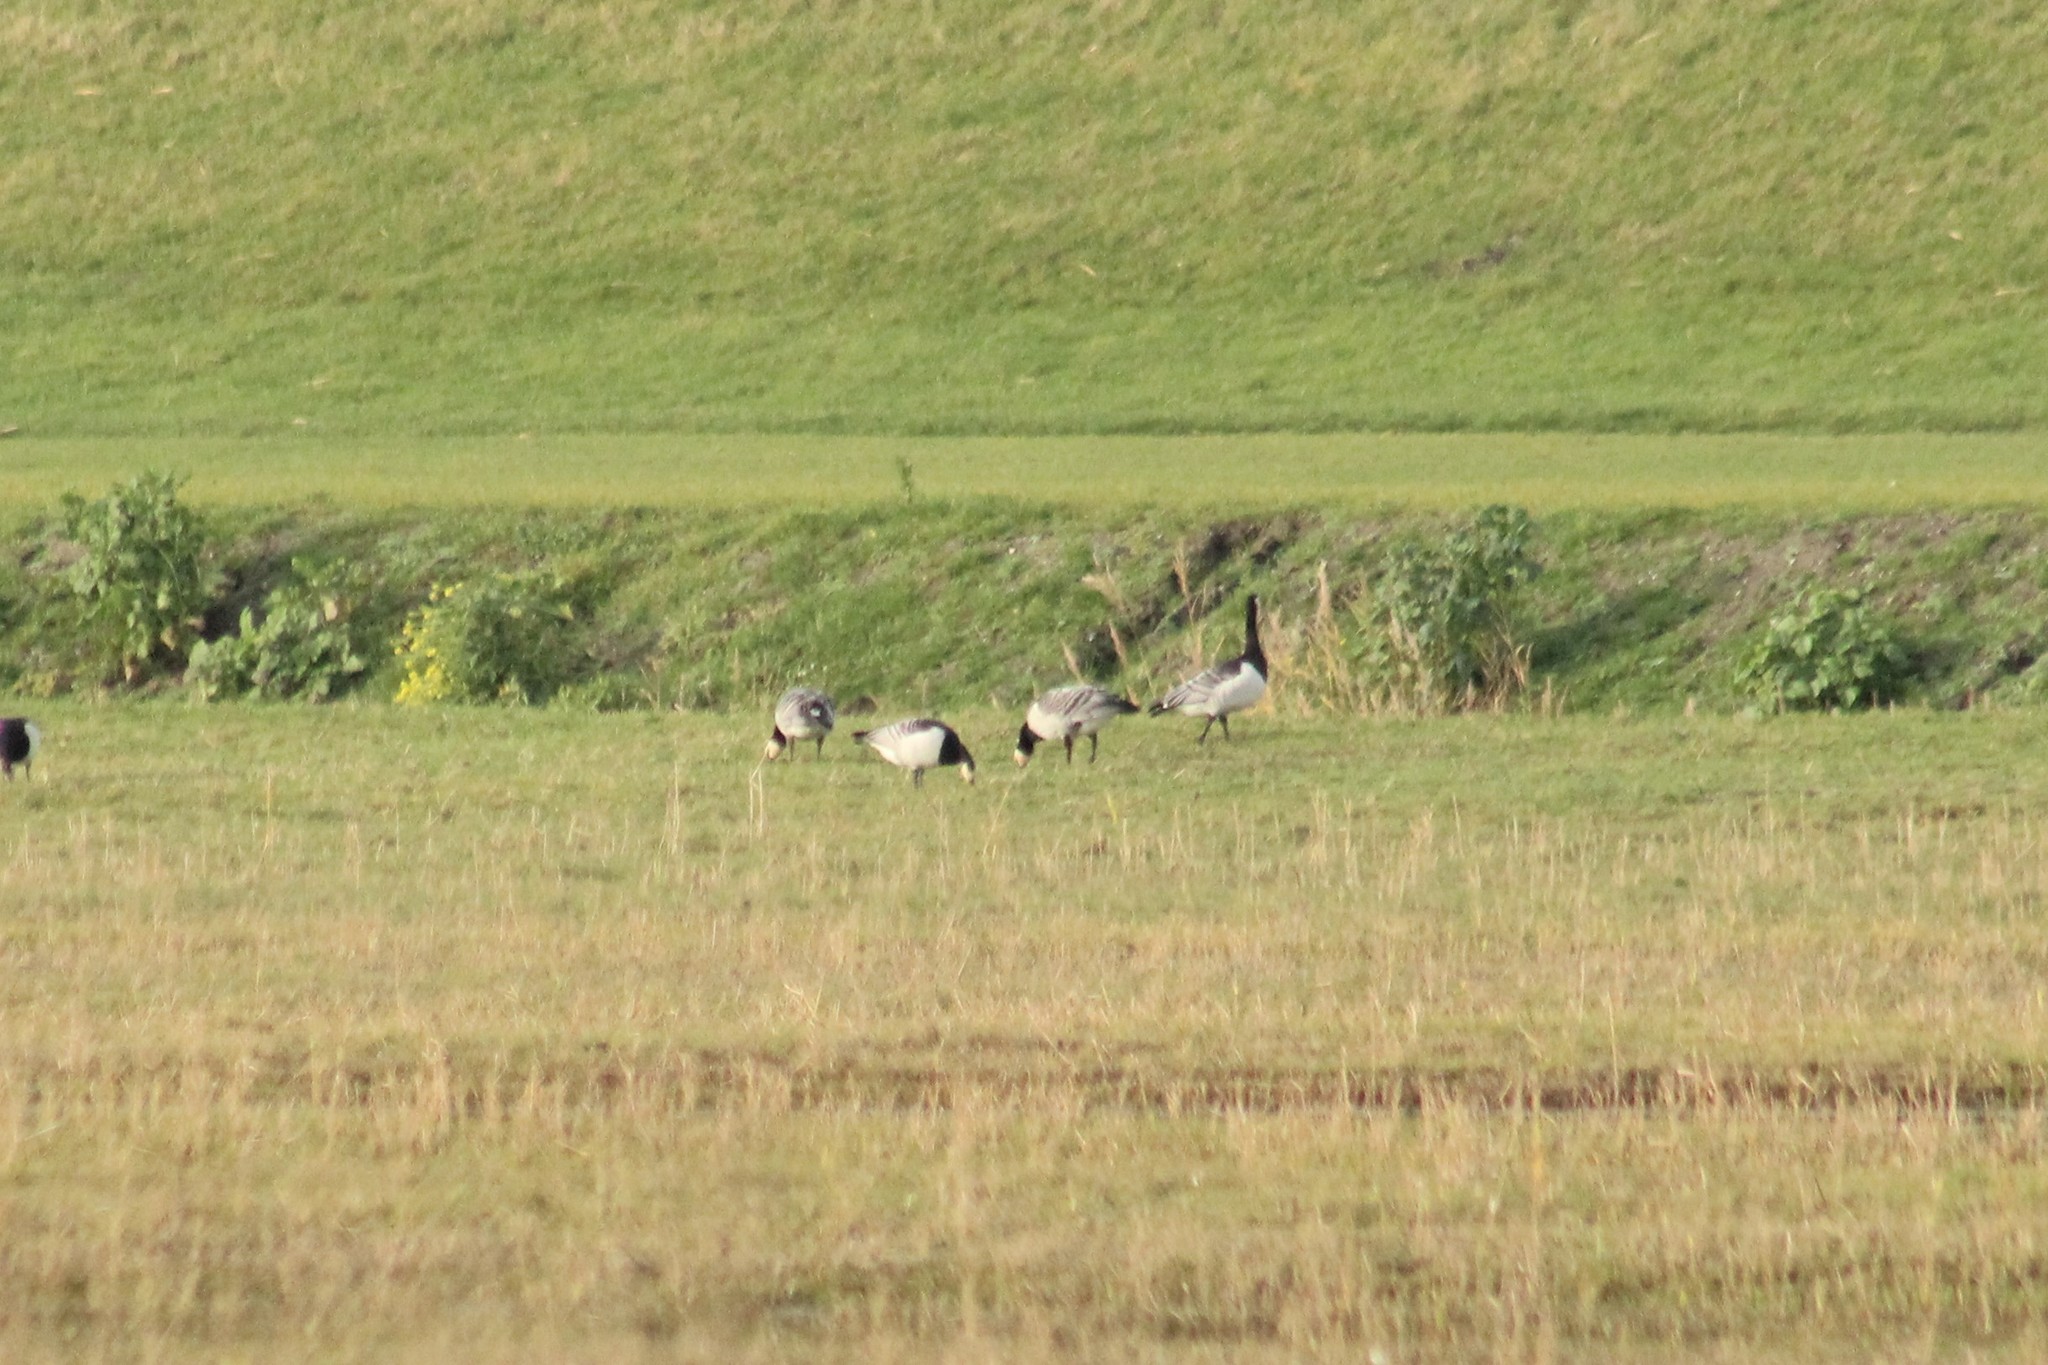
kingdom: Animalia
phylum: Chordata
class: Aves
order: Anseriformes
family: Anatidae
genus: Branta
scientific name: Branta leucopsis
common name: Barnacle goose
